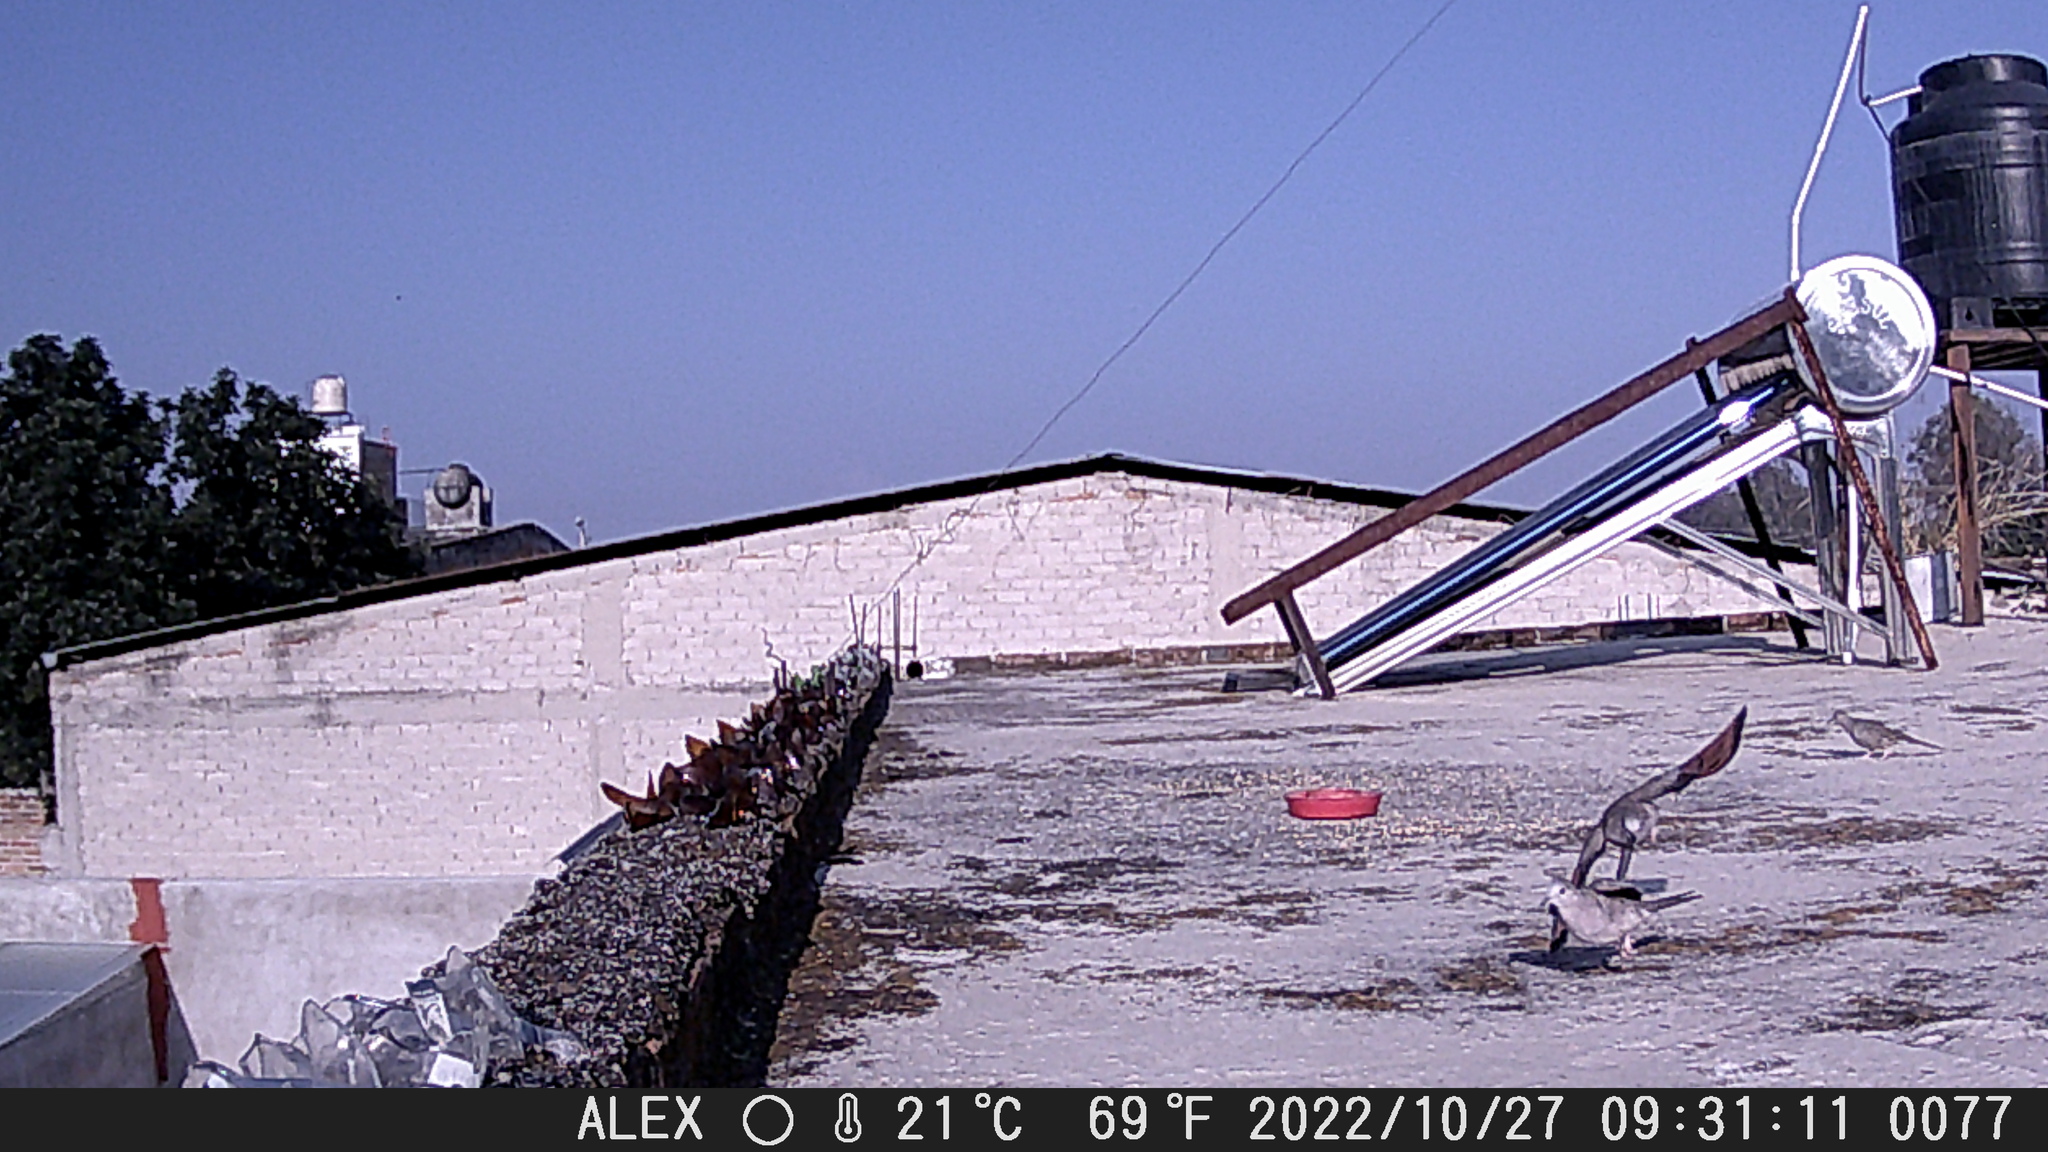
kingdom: Animalia
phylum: Chordata
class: Aves
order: Columbiformes
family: Columbidae
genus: Columbina
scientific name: Columbina inca
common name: Inca dove
